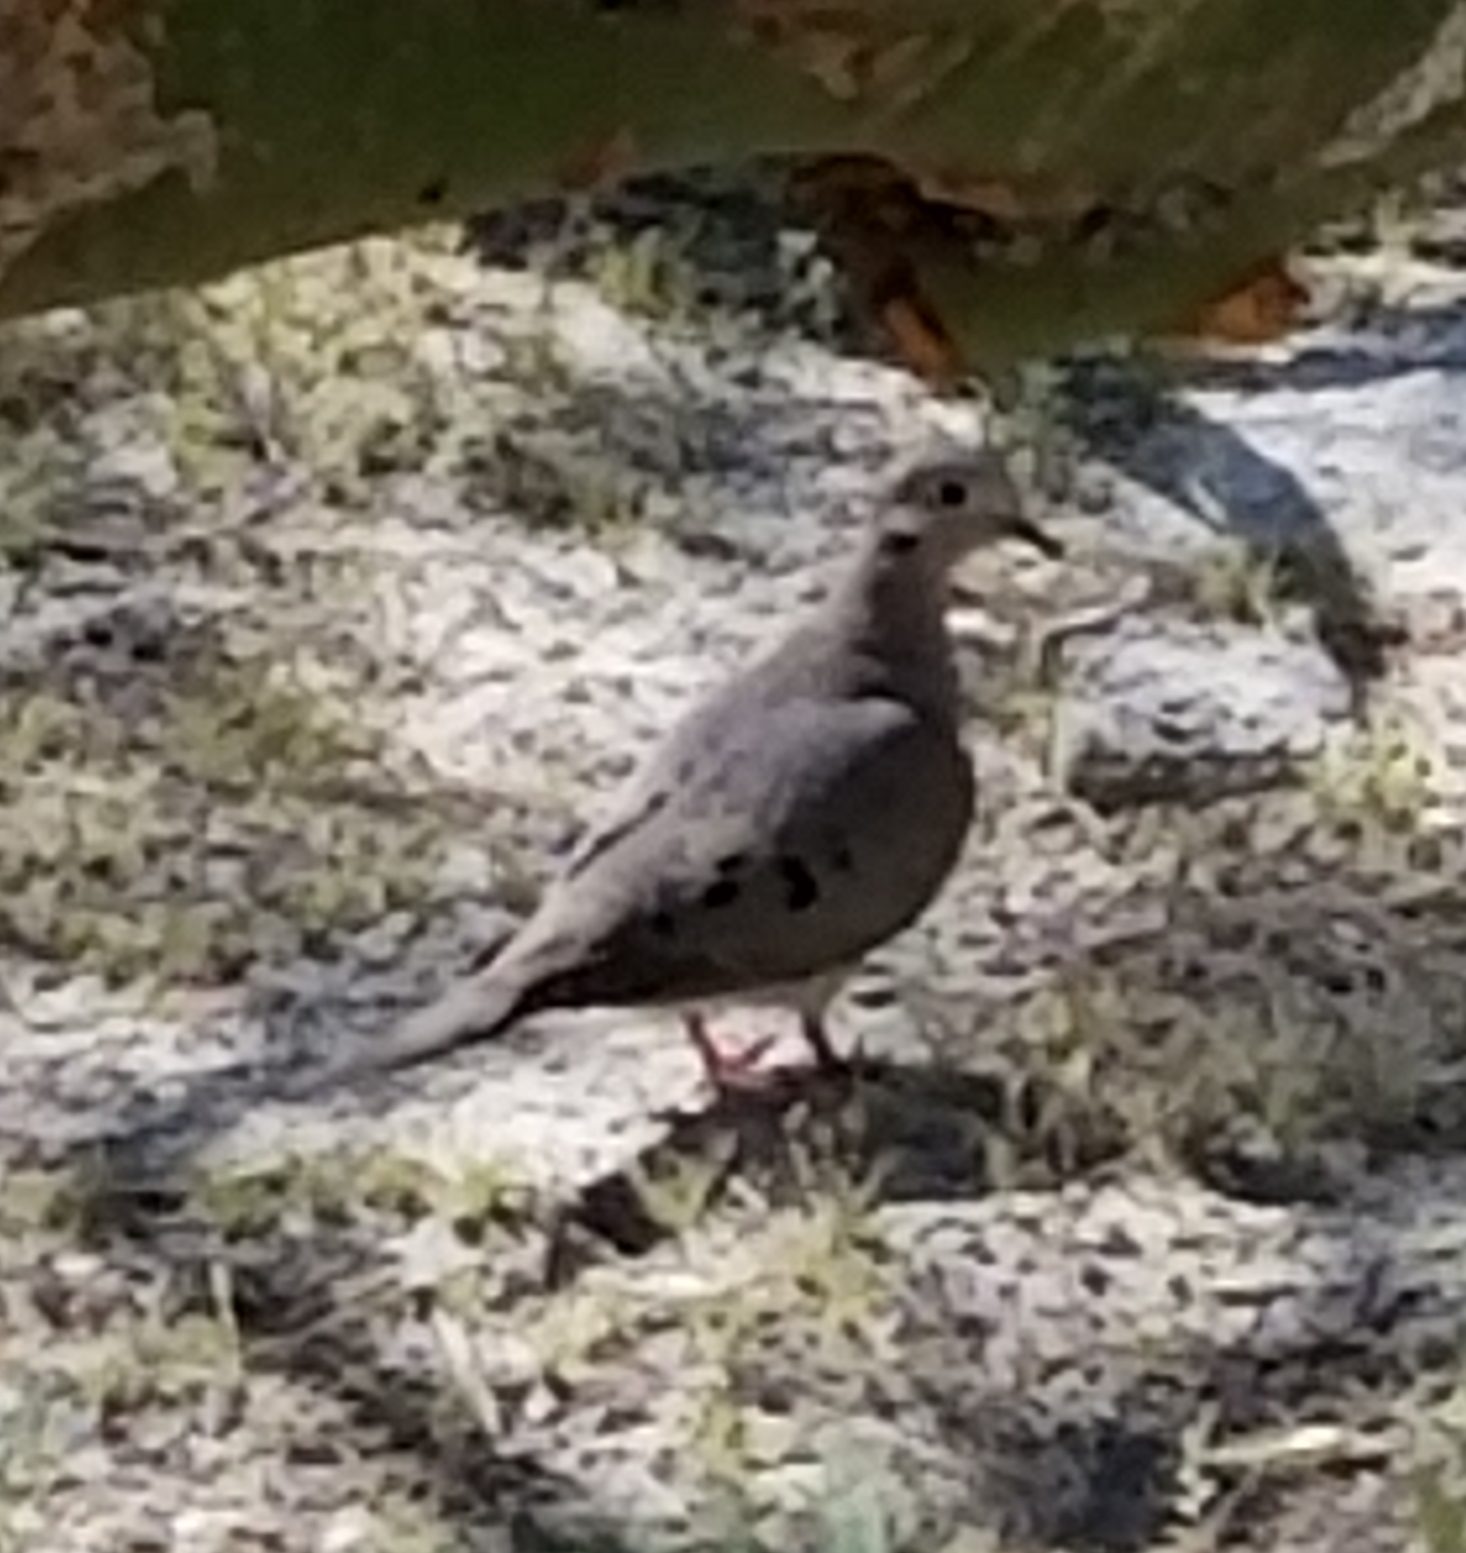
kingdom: Animalia
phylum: Chordata
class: Aves
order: Columbiformes
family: Columbidae
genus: Zenaida
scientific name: Zenaida macroura
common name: Mourning dove
